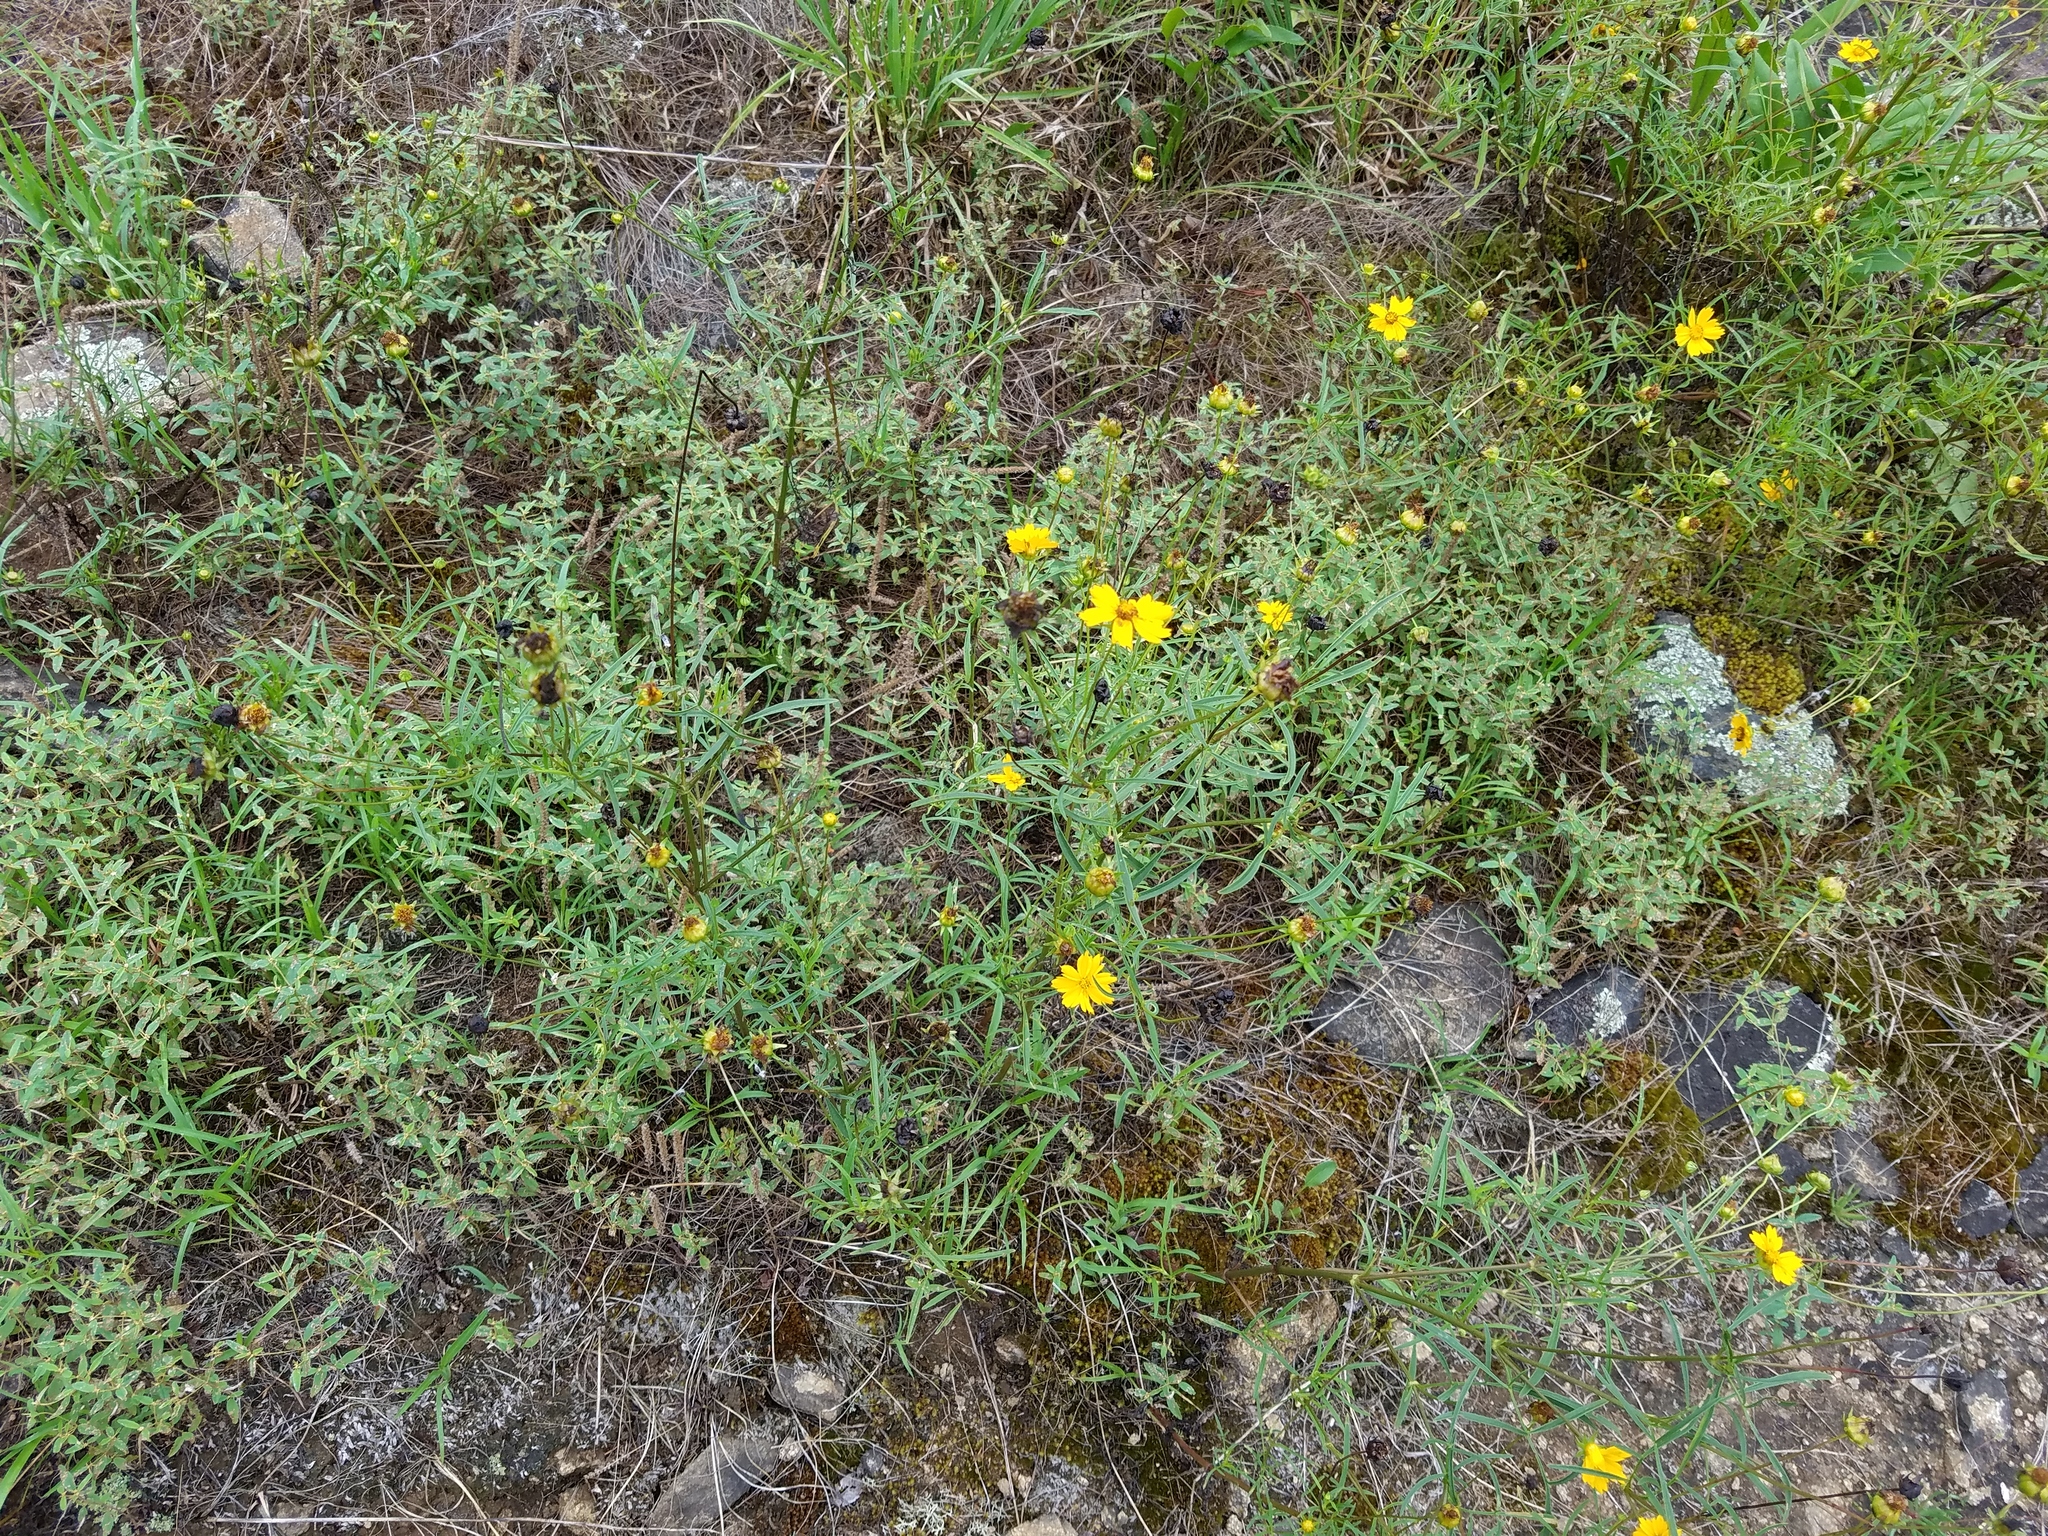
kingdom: Plantae
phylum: Tracheophyta
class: Magnoliopsida
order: Asterales
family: Asteraceae
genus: Coreopsis
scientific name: Coreopsis lanceolata
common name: Garden coreopsis
